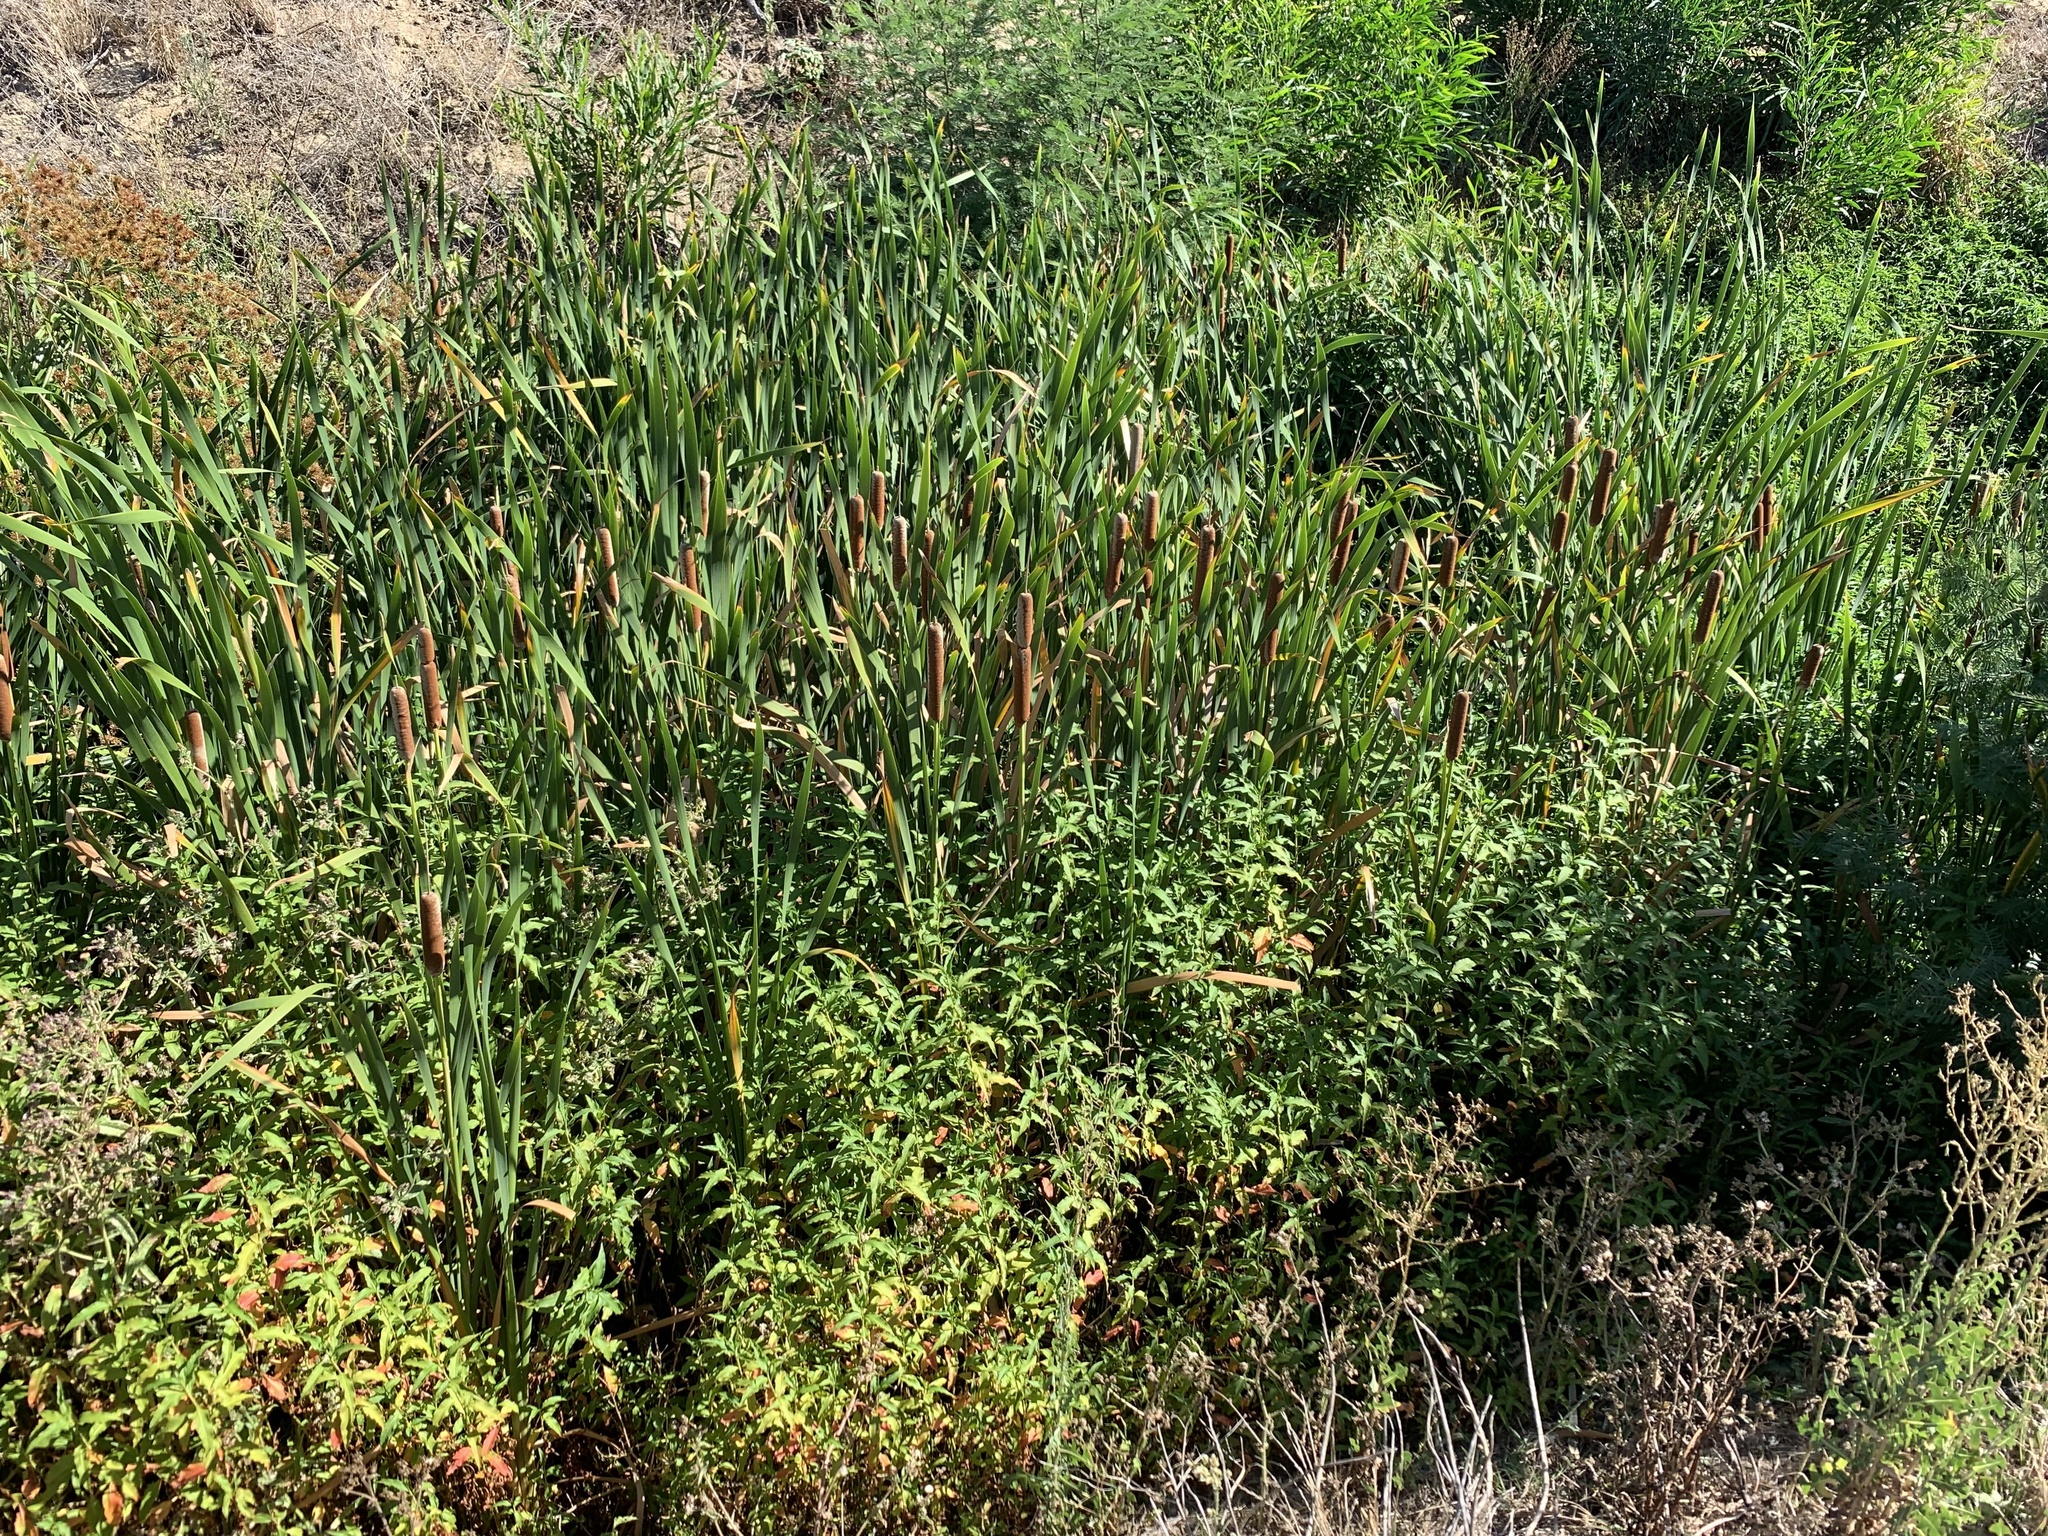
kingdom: Plantae
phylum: Tracheophyta
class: Liliopsida
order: Poales
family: Typhaceae
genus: Typha
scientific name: Typha capensis
